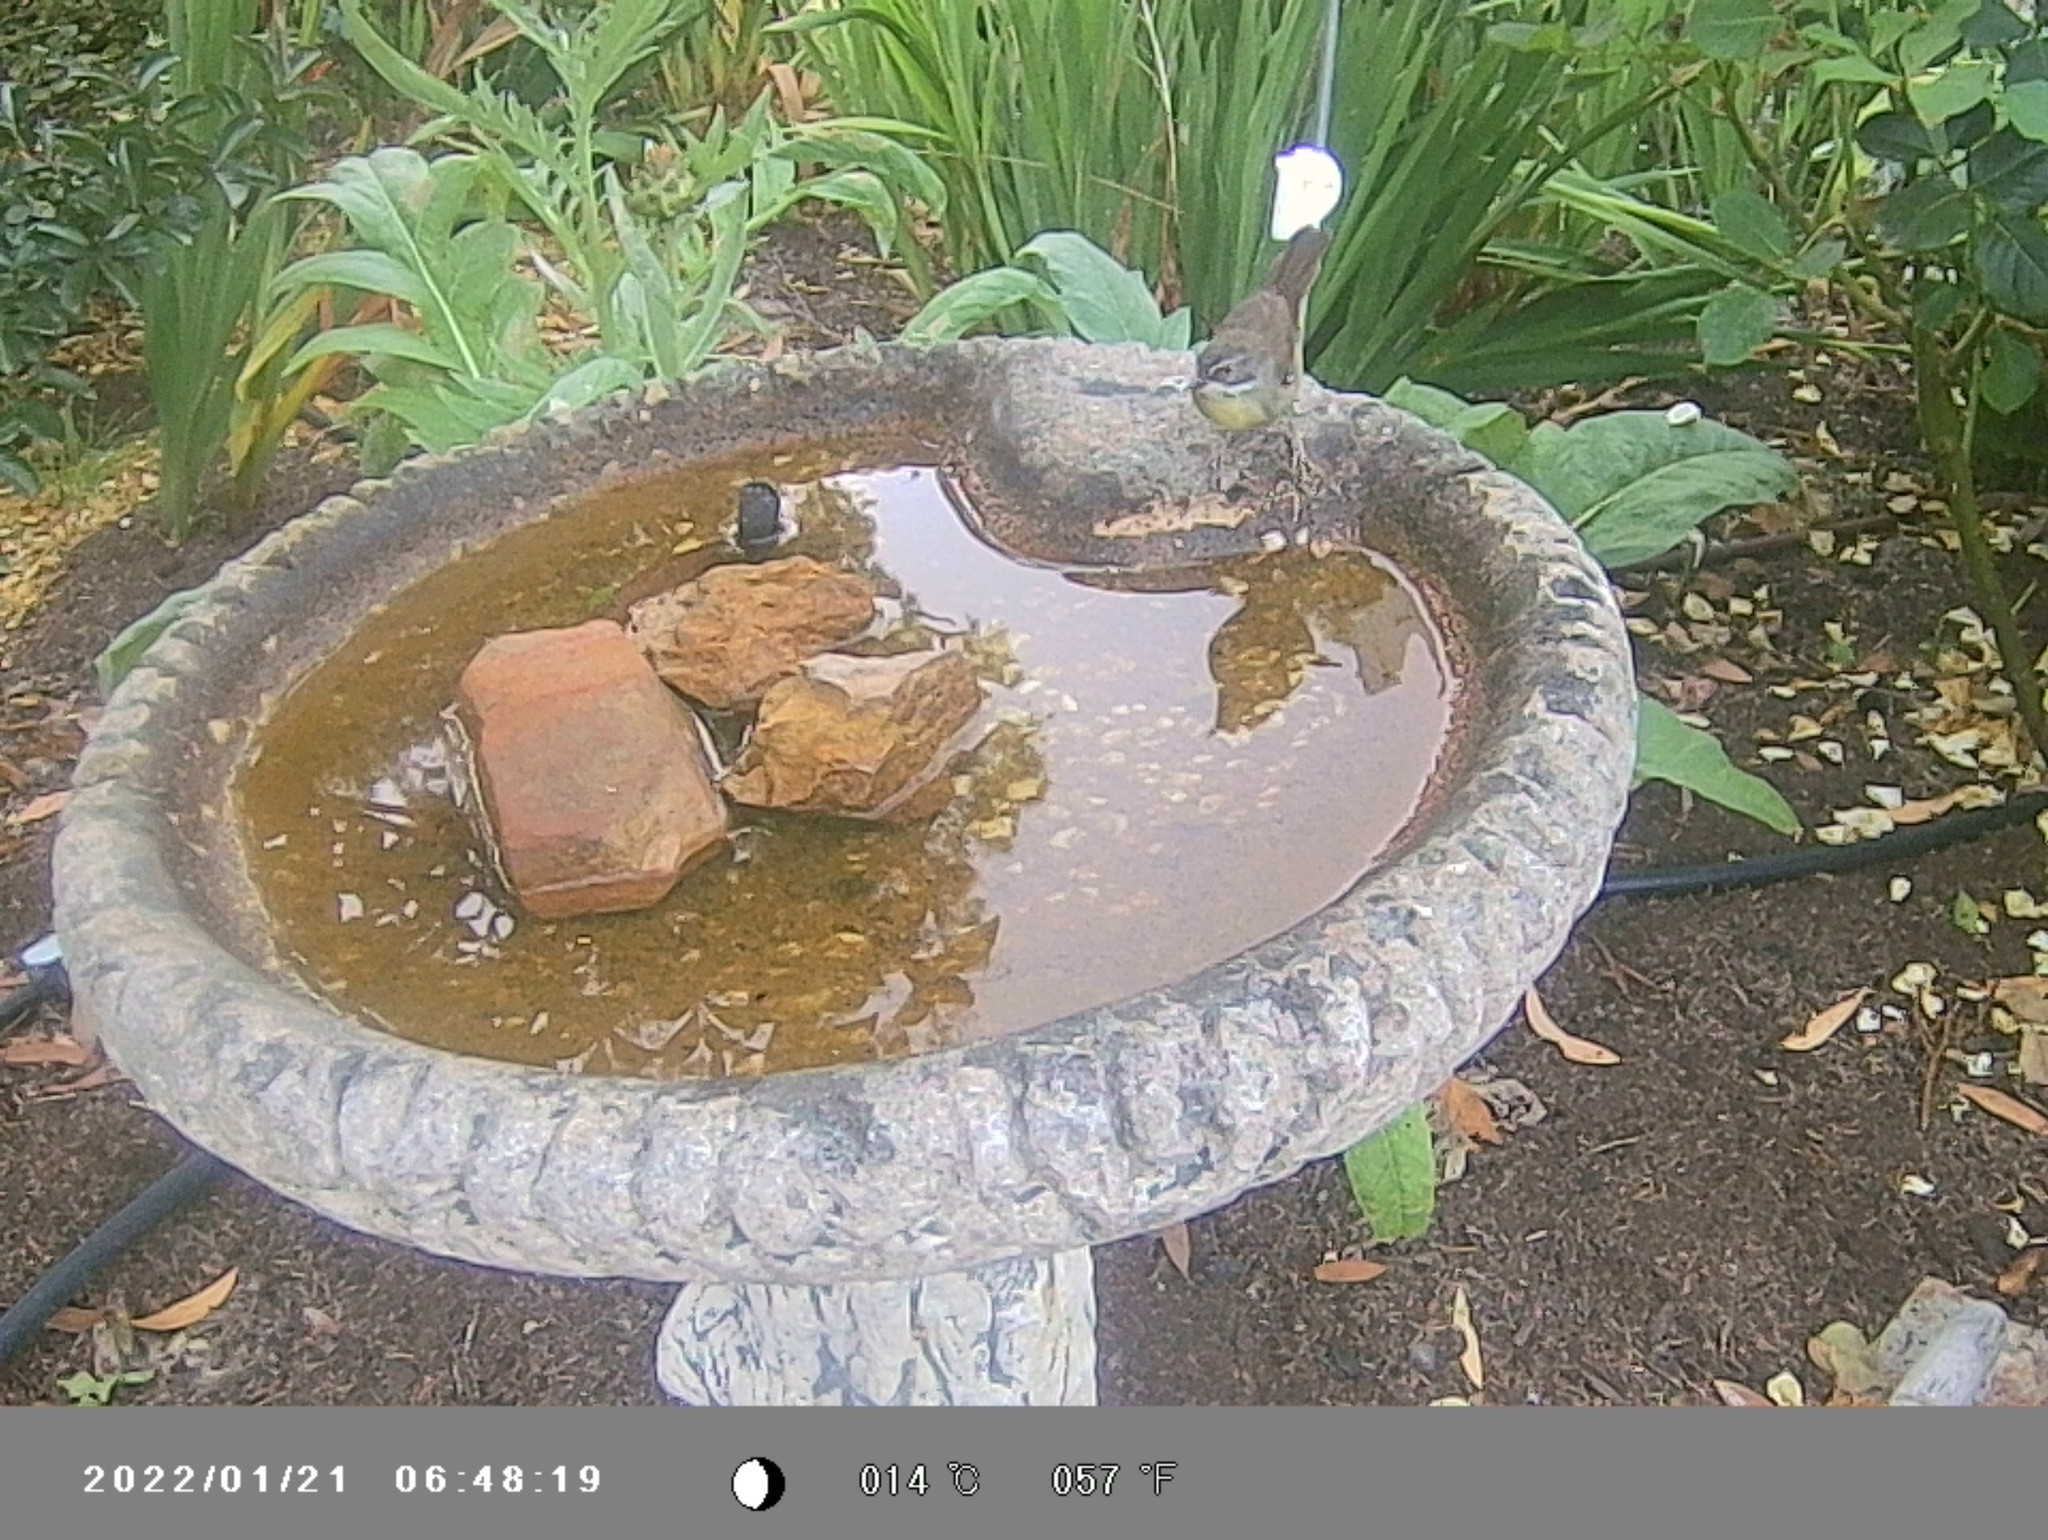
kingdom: Animalia
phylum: Chordata
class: Aves
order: Passeriformes
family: Acanthizidae
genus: Sericornis
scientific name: Sericornis frontalis
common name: White-browed scrubwren
